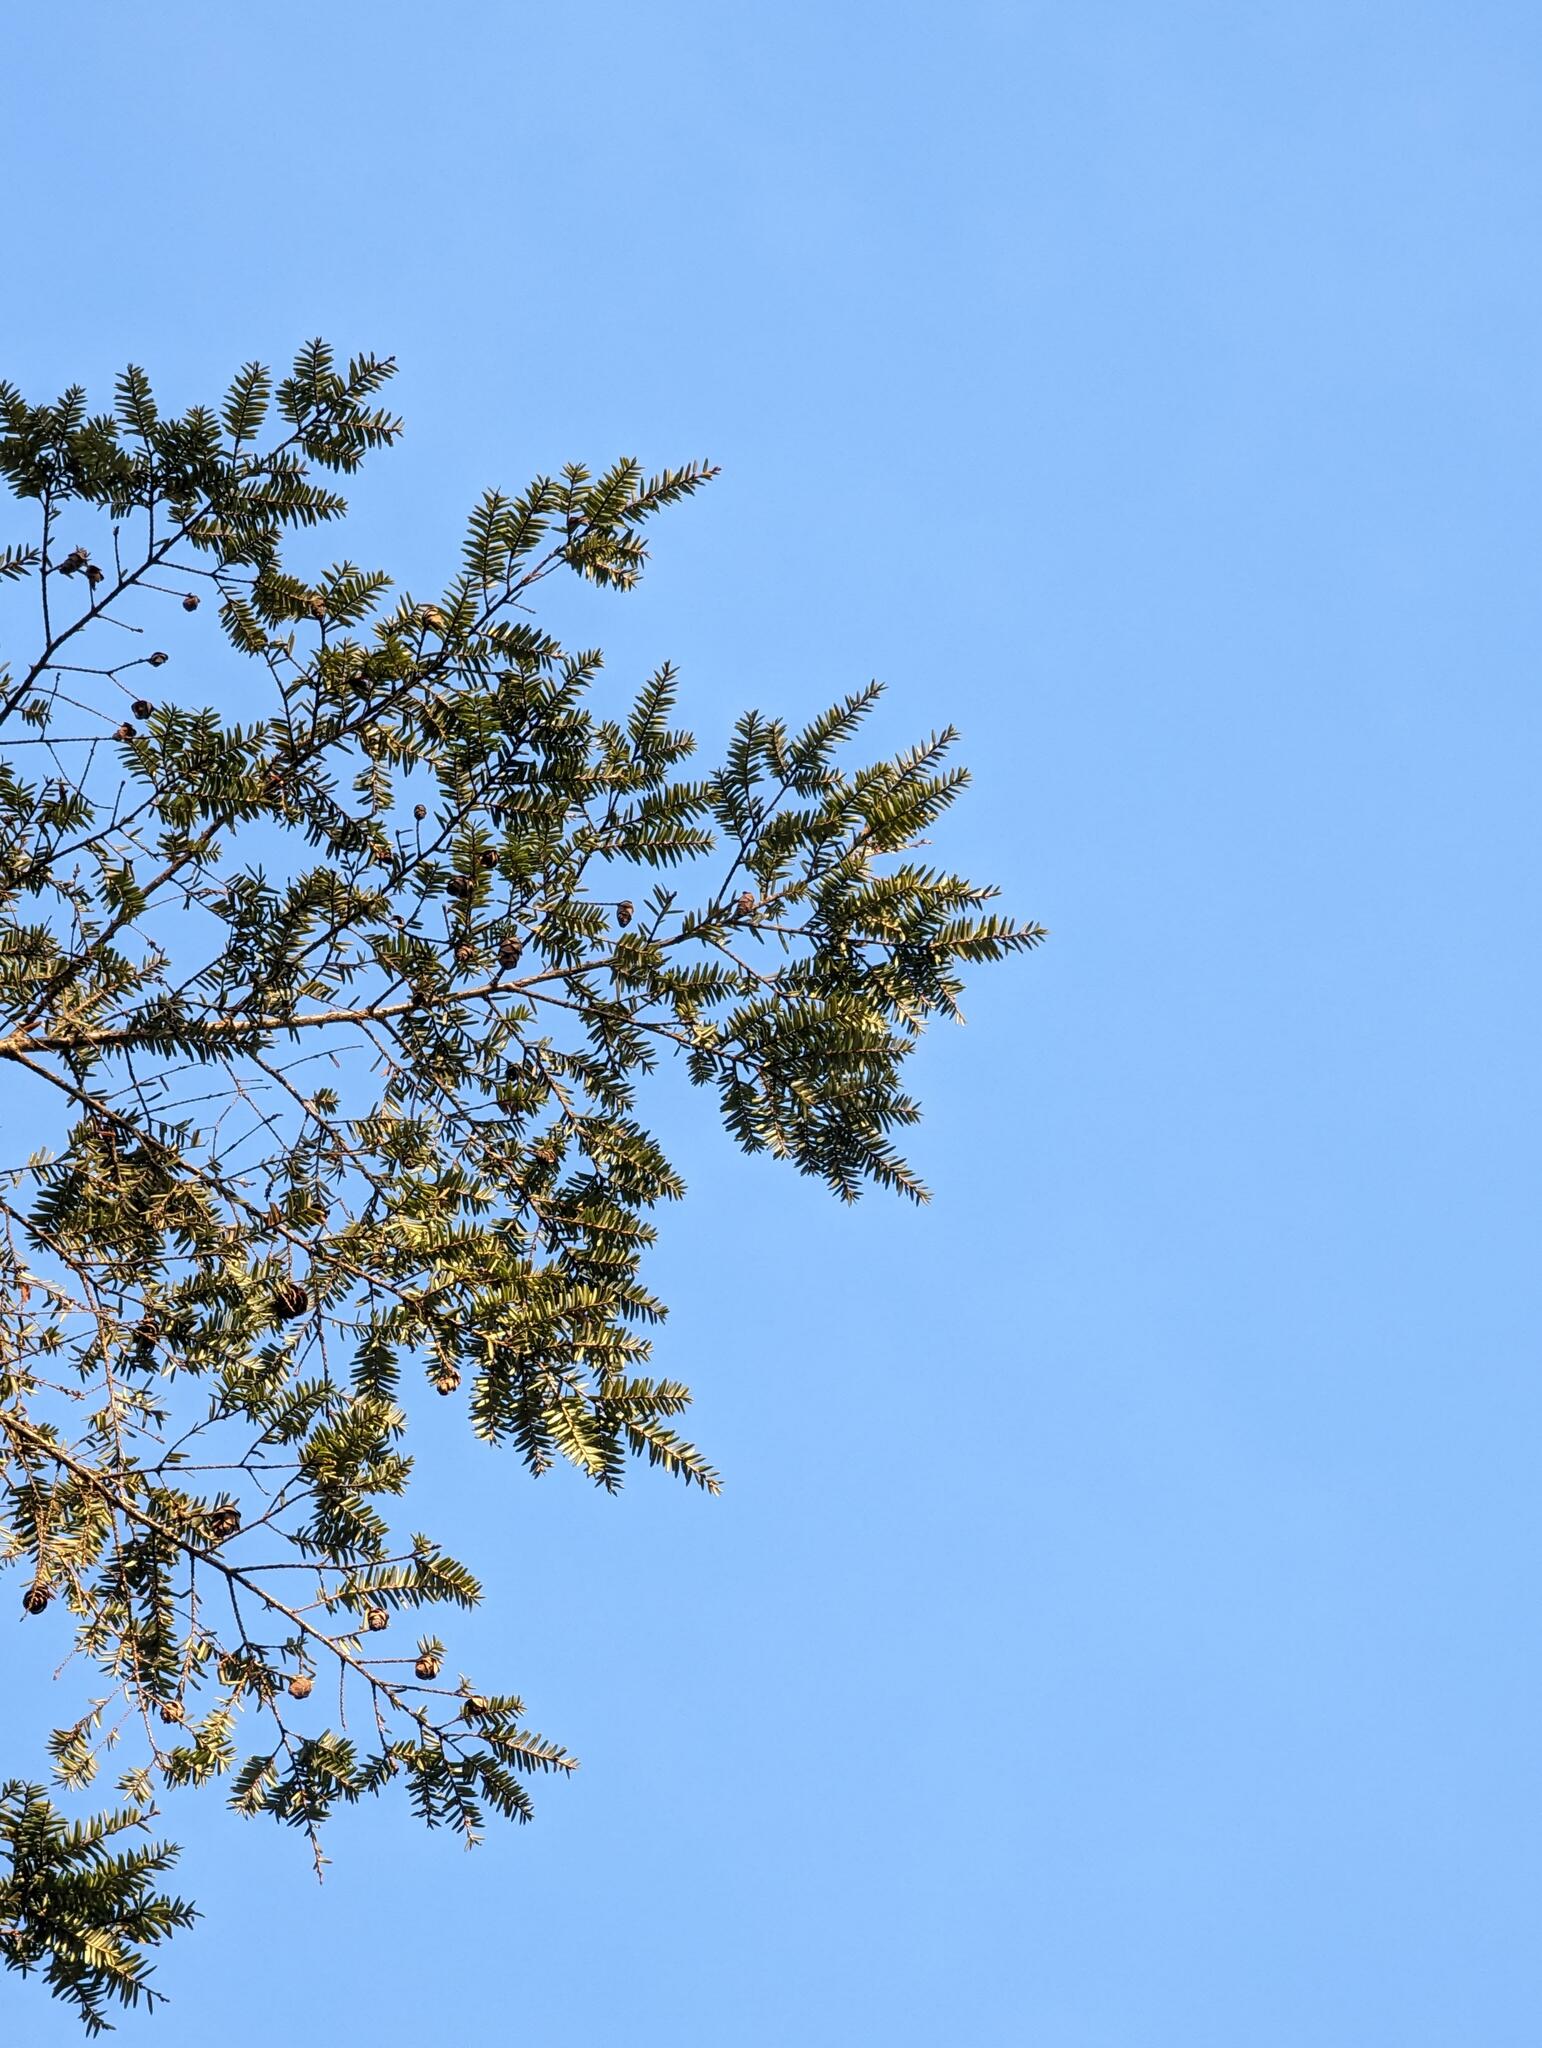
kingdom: Plantae
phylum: Tracheophyta
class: Pinopsida
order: Pinales
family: Pinaceae
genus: Tsuga
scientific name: Tsuga canadensis
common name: Eastern hemlock
